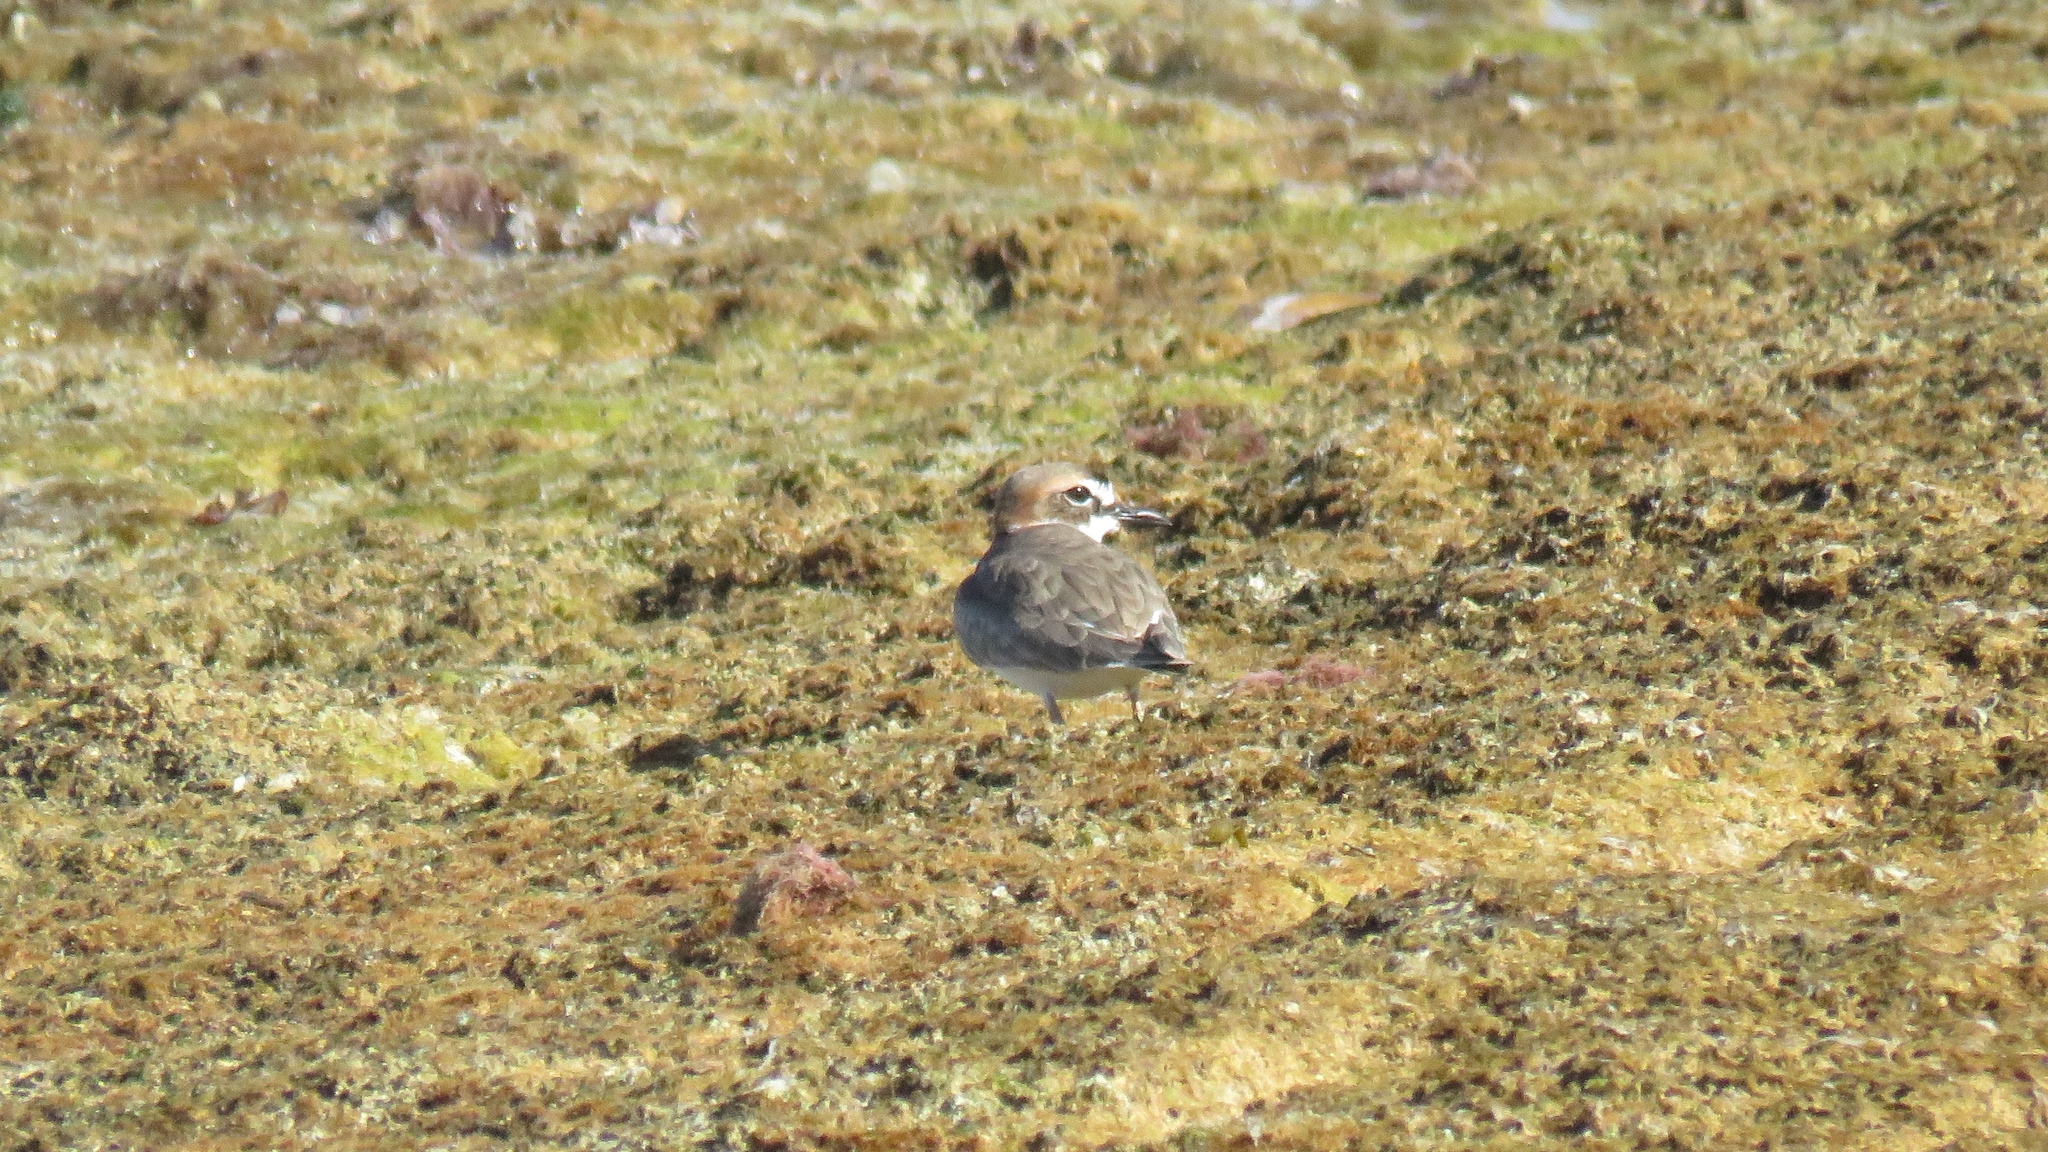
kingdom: Animalia
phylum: Chordata
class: Aves
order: Charadriiformes
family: Charadriidae
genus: Anarhynchus
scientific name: Anarhynchus
